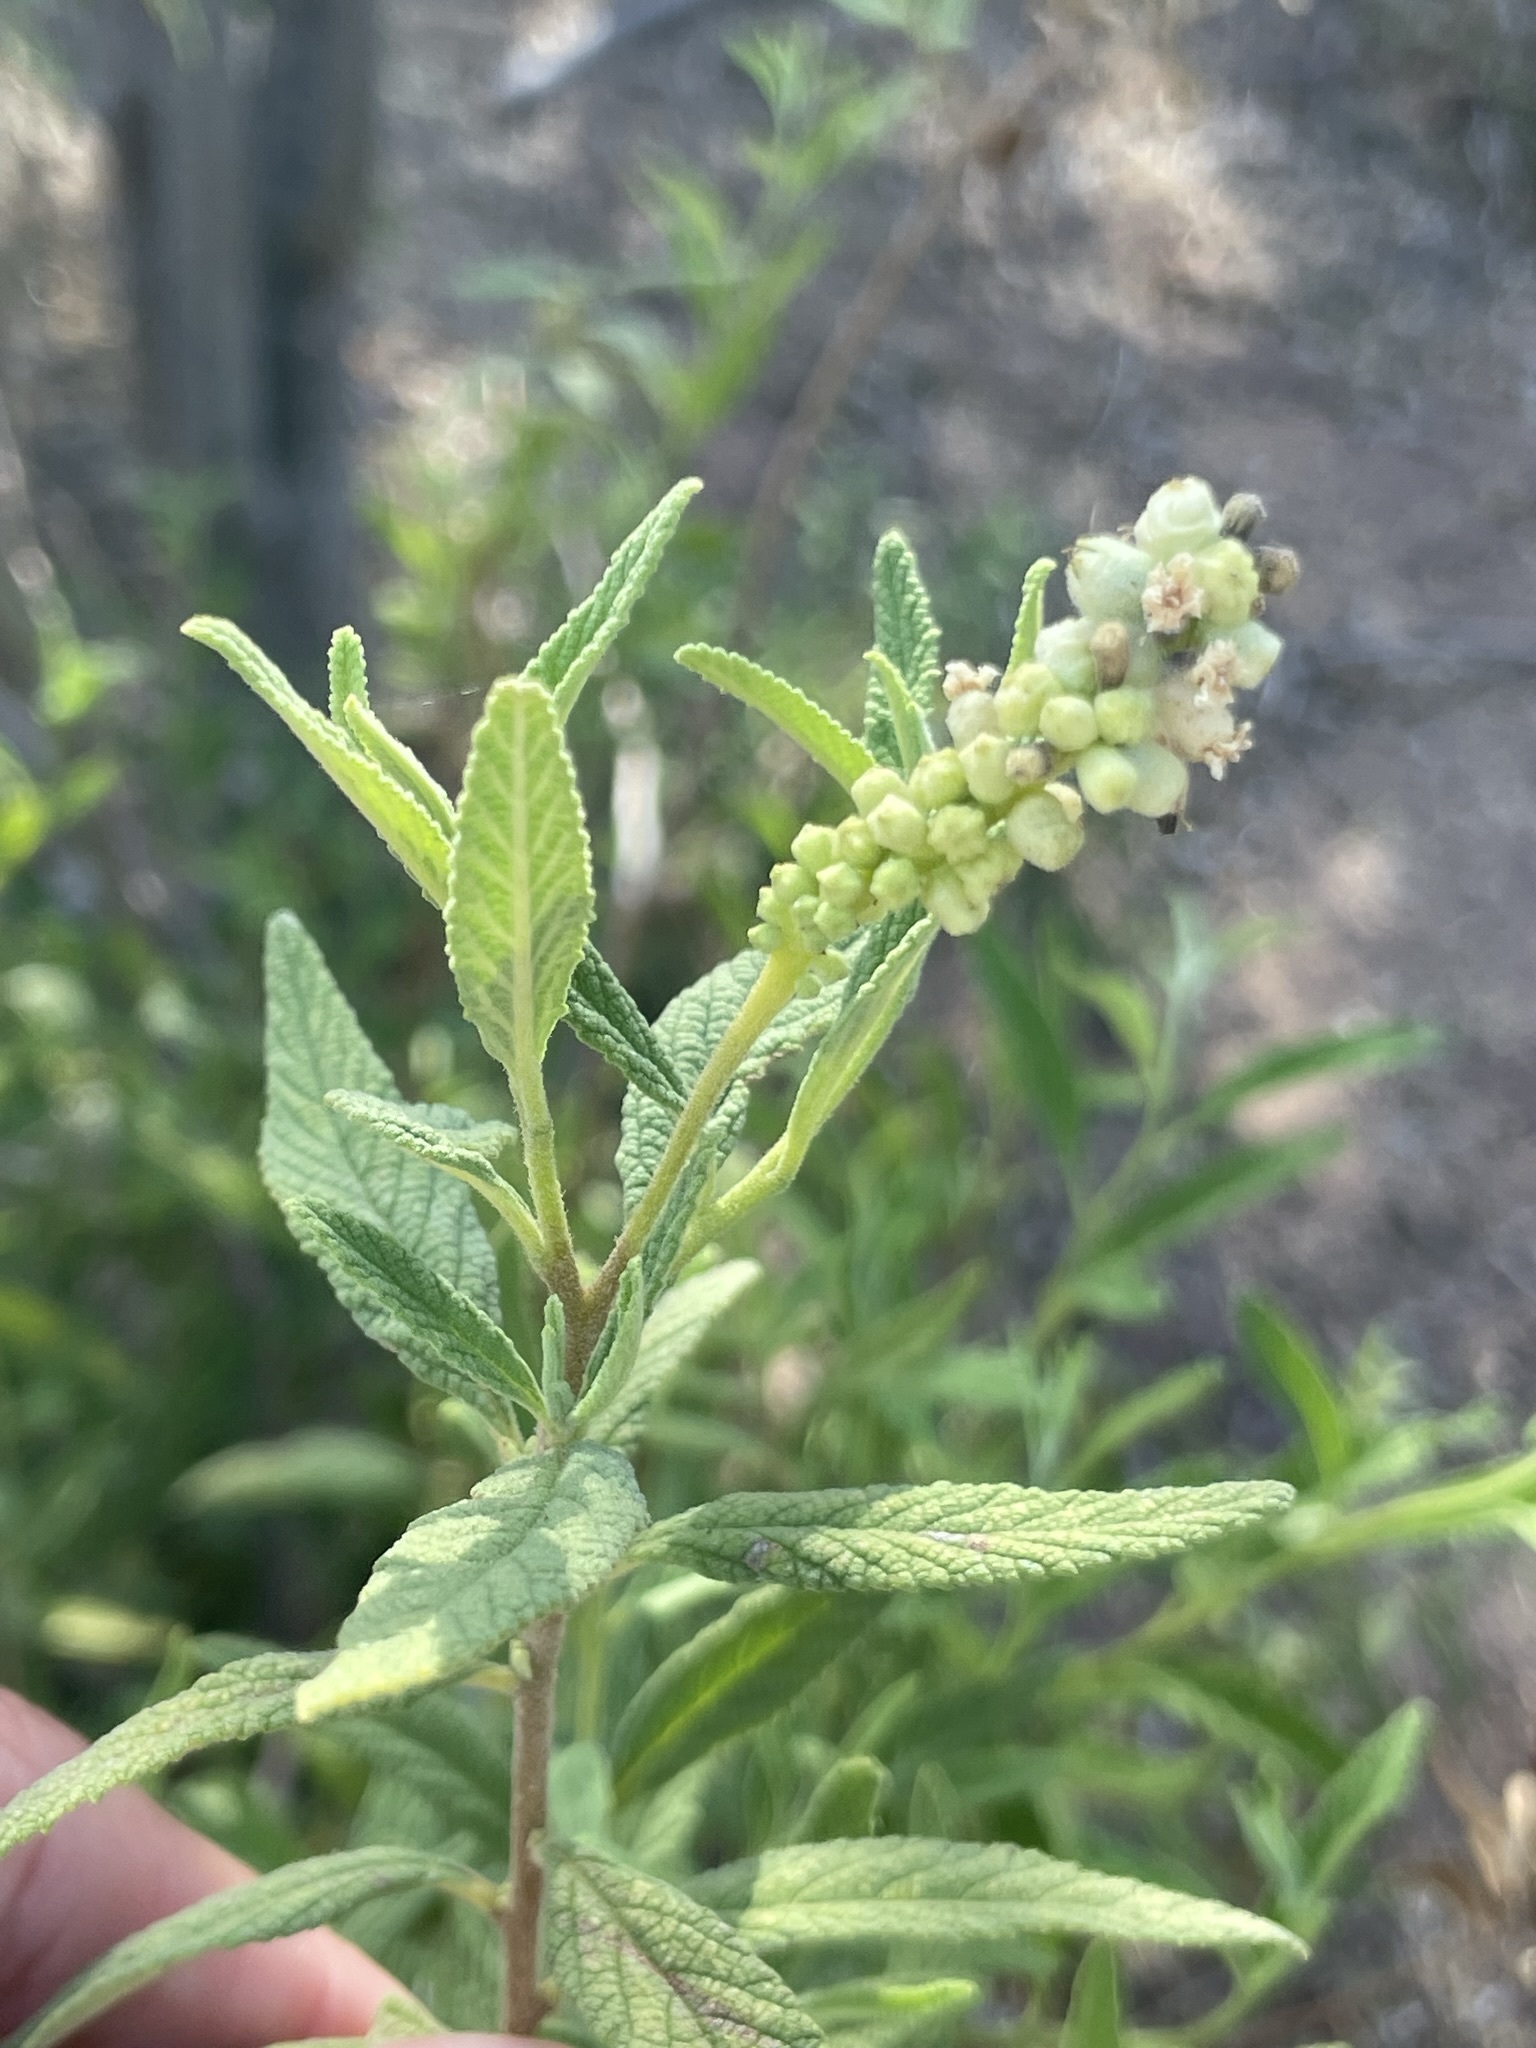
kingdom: Plantae
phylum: Tracheophyta
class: Magnoliopsida
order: Boraginales
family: Cordiaceae
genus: Varronia
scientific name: Varronia curassavica
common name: Black sage
